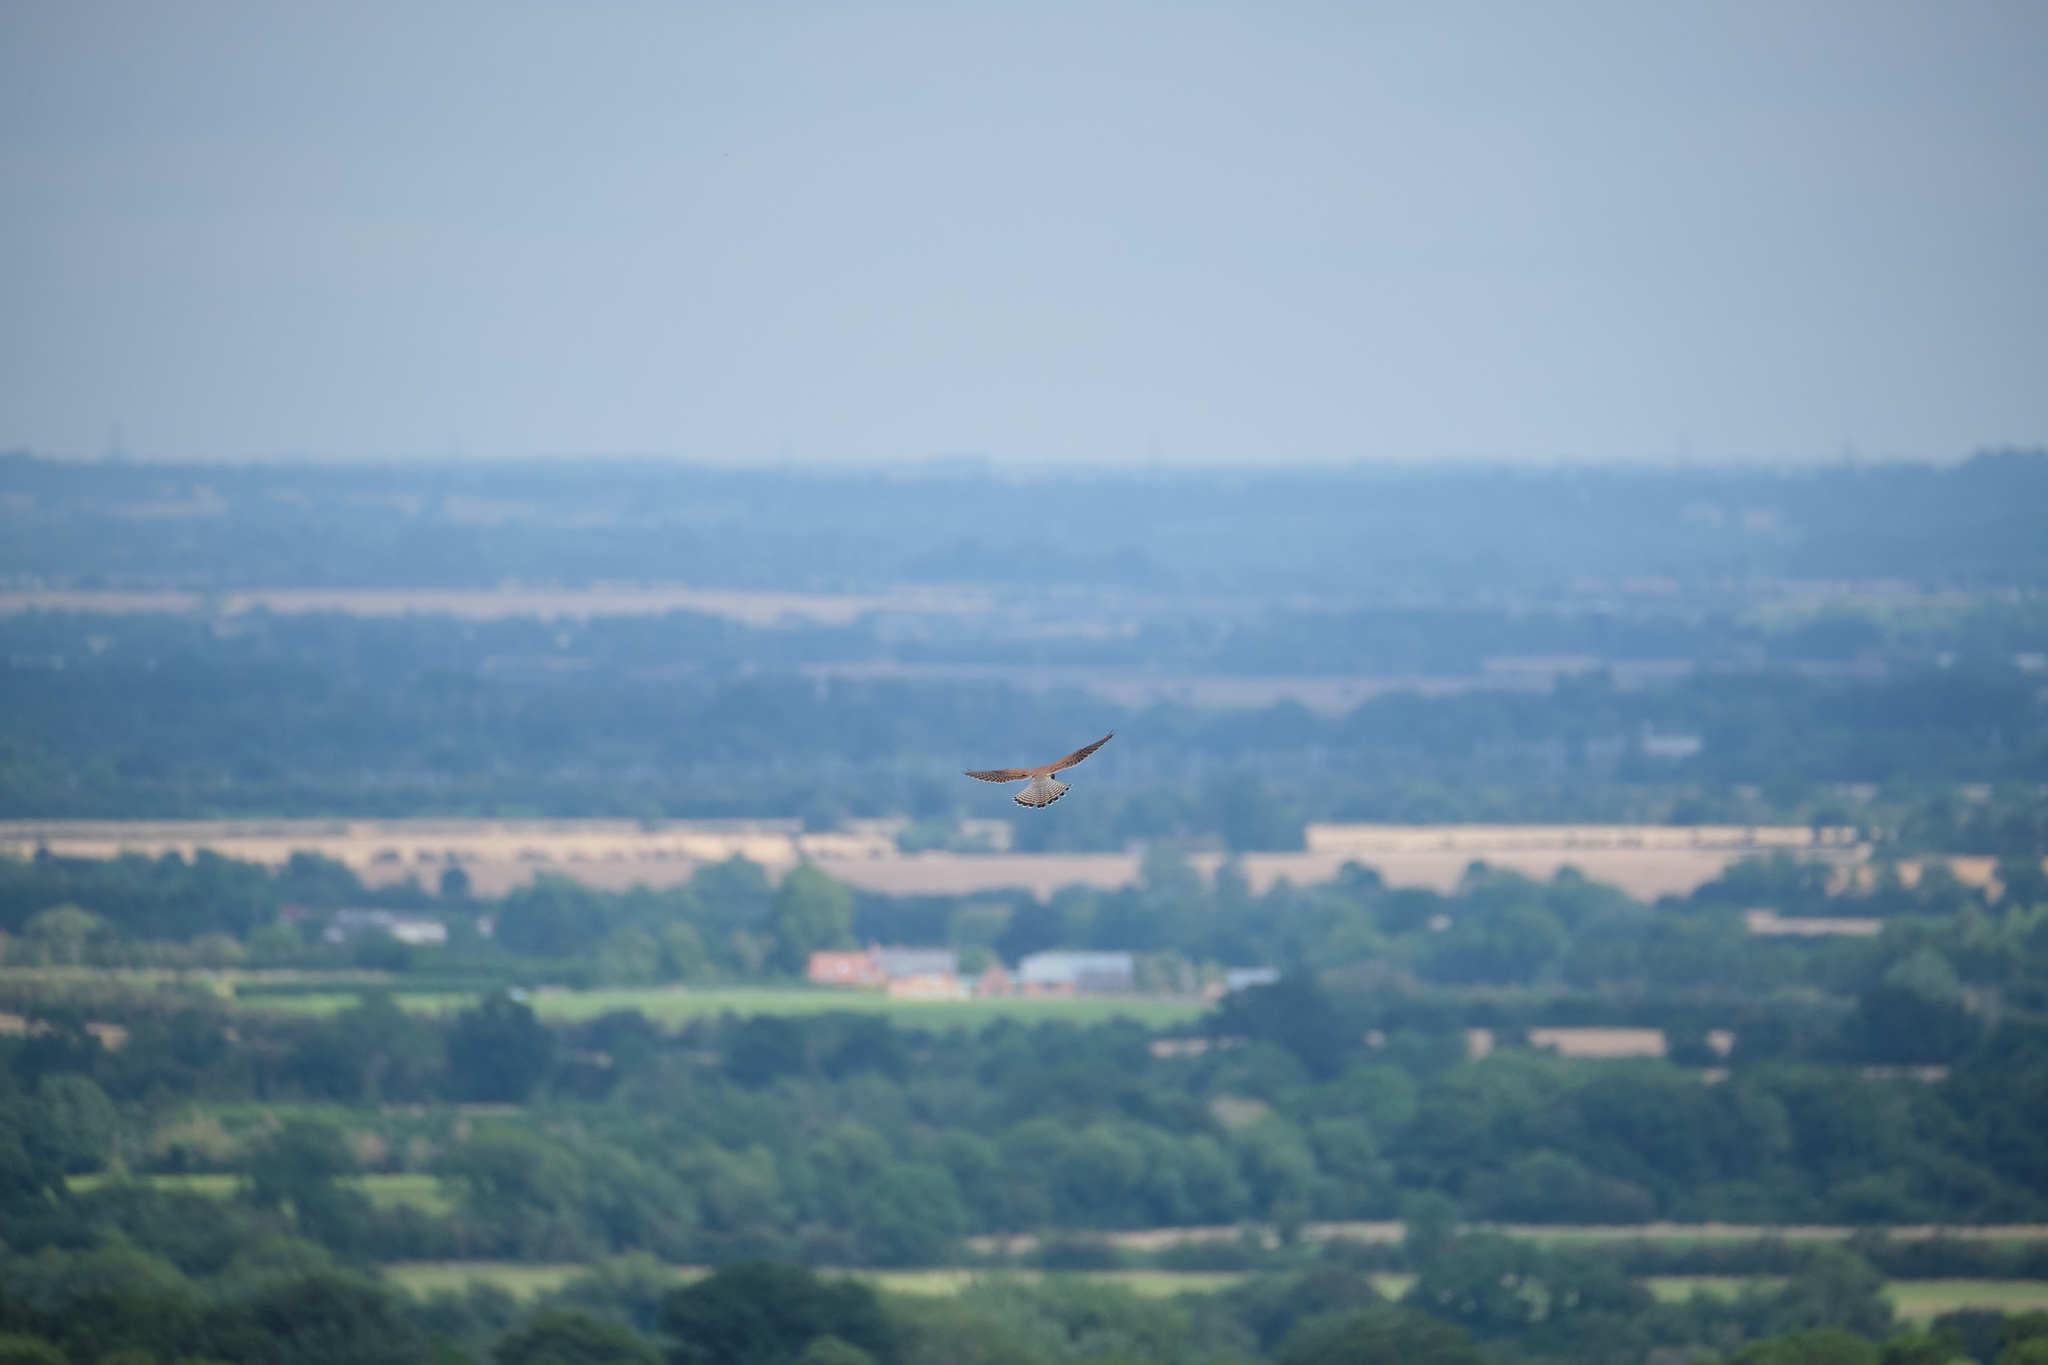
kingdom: Animalia
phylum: Chordata
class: Aves
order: Falconiformes
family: Falconidae
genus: Falco
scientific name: Falco tinnunculus
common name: Common kestrel
